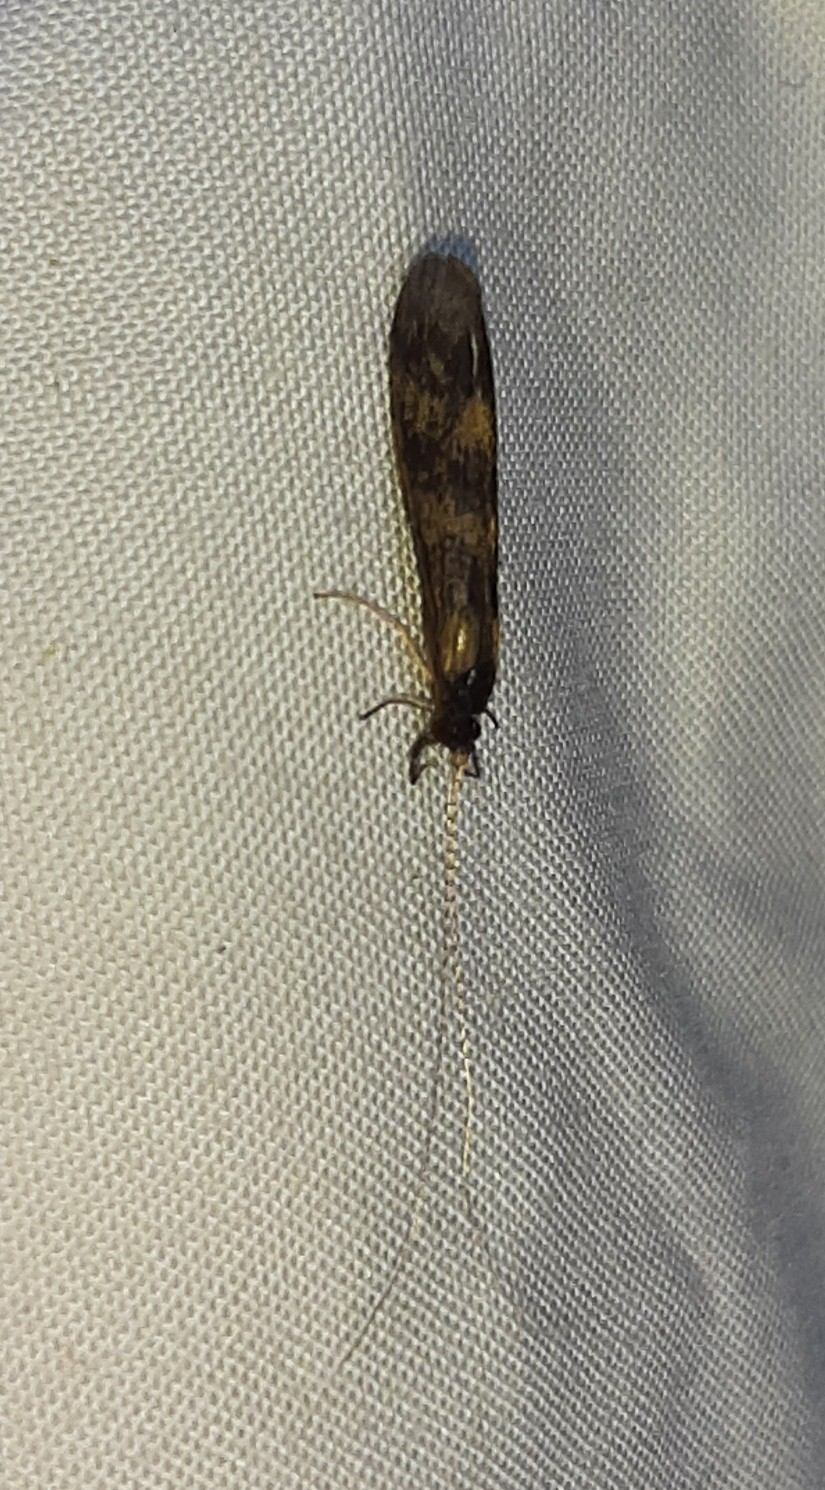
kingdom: Animalia
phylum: Arthropoda
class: Insecta
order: Trichoptera
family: Leptoceridae
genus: Mystacides
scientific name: Mystacides longicornis
